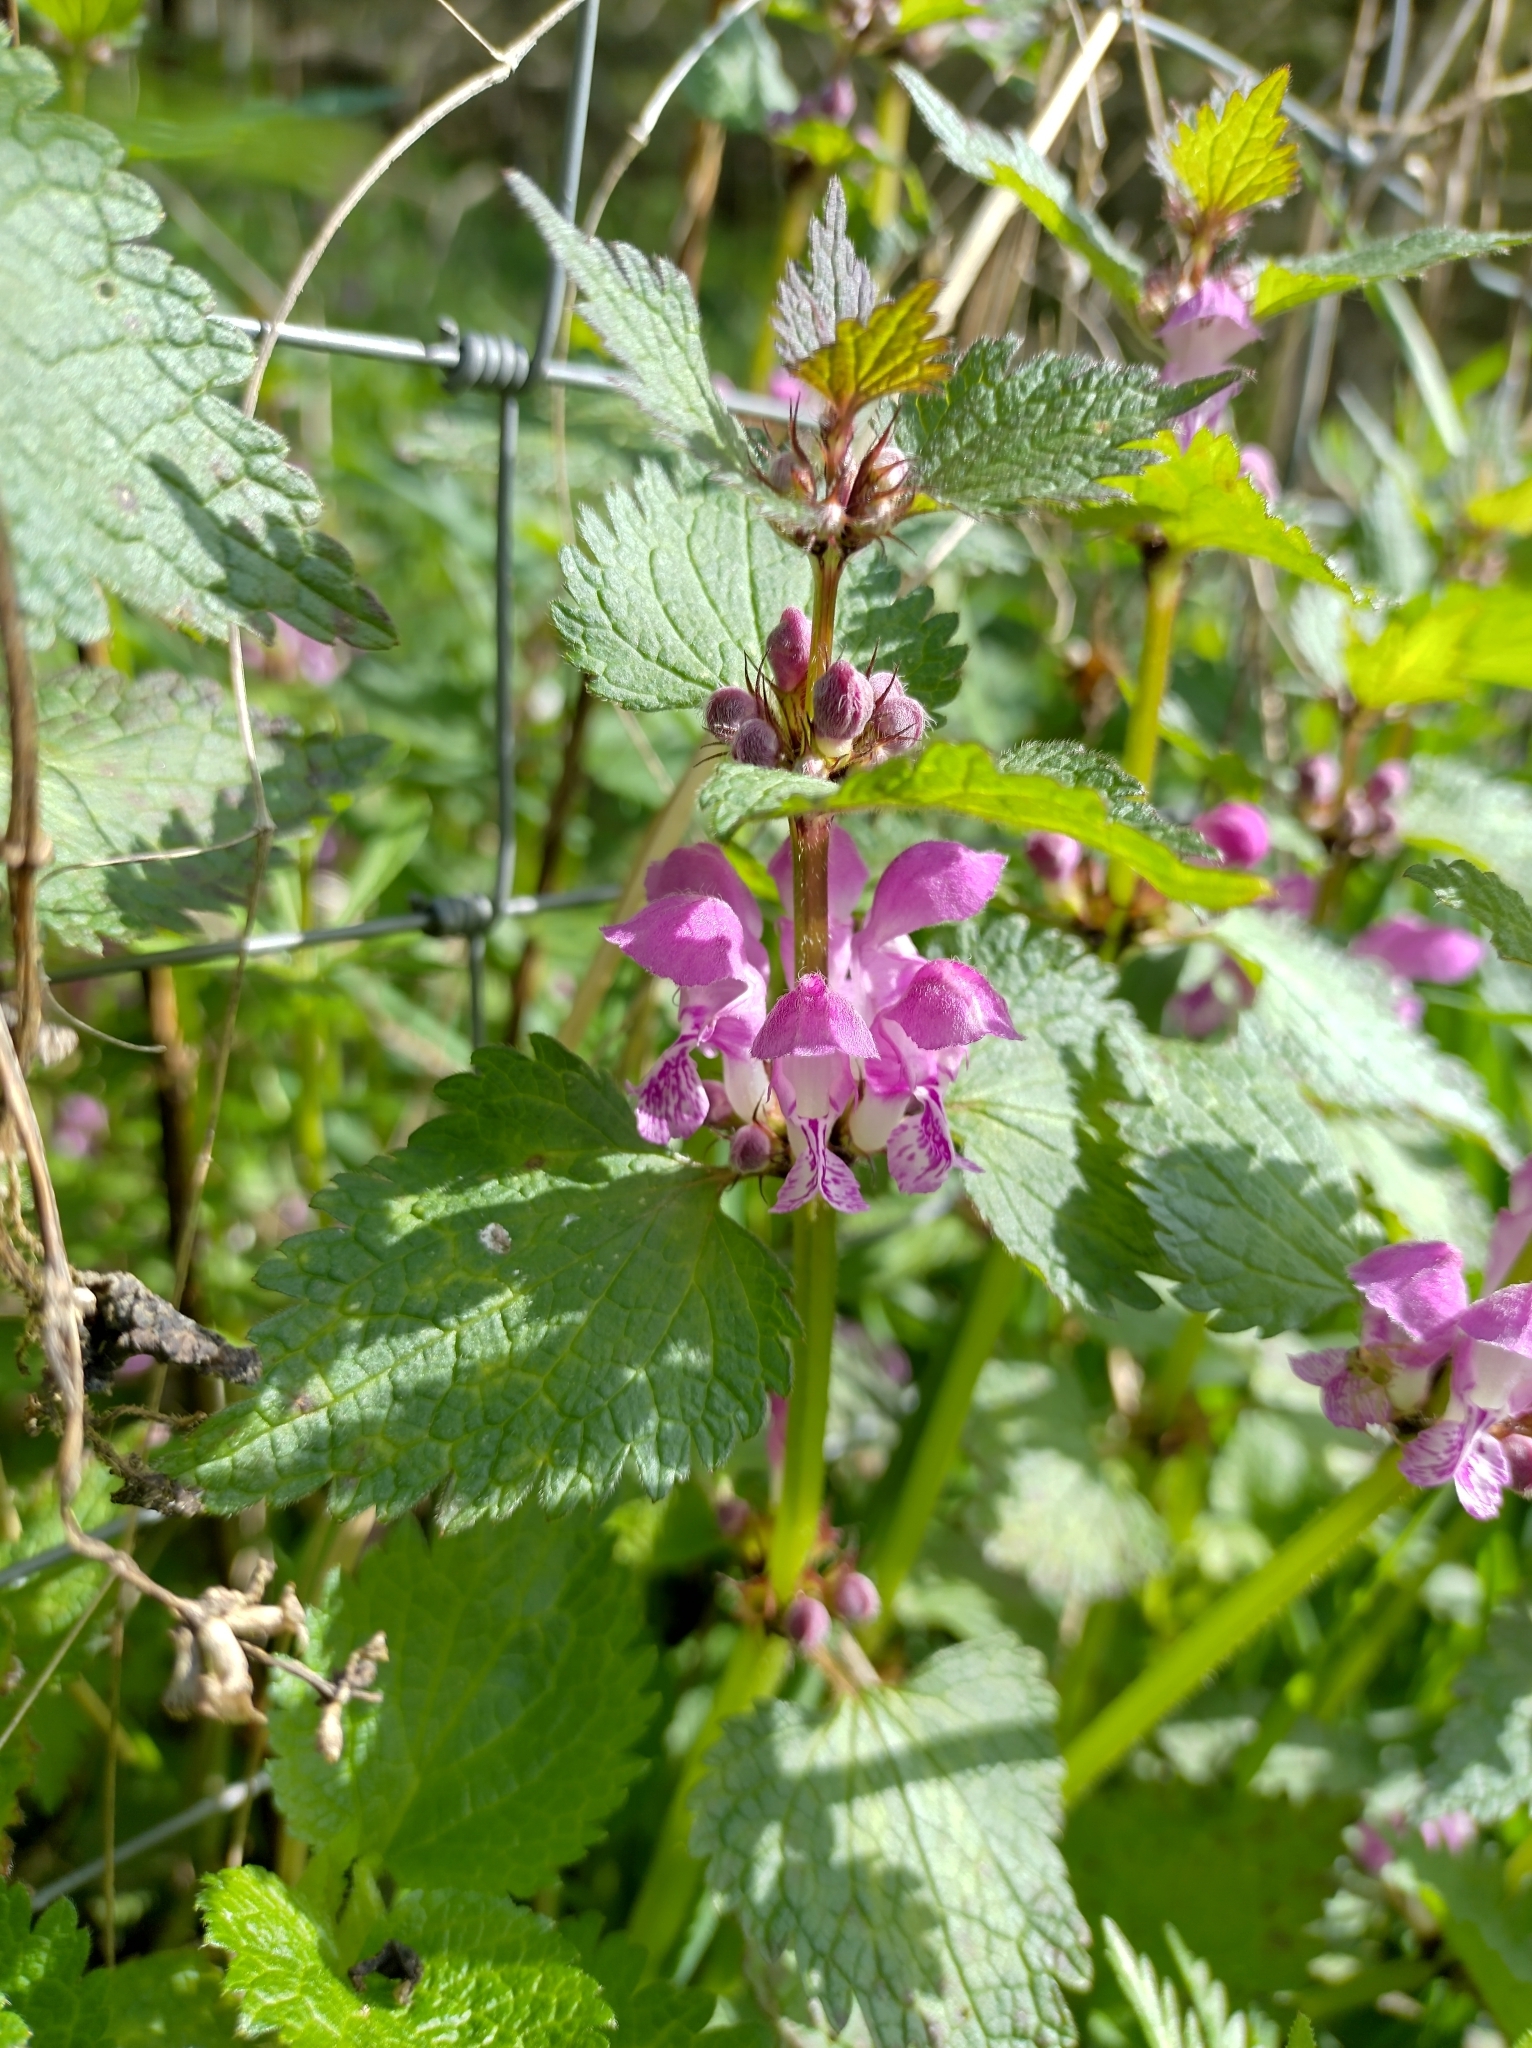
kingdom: Plantae
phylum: Tracheophyta
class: Magnoliopsida
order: Lamiales
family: Lamiaceae
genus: Lamium
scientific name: Lamium maculatum
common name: Spotted dead-nettle
